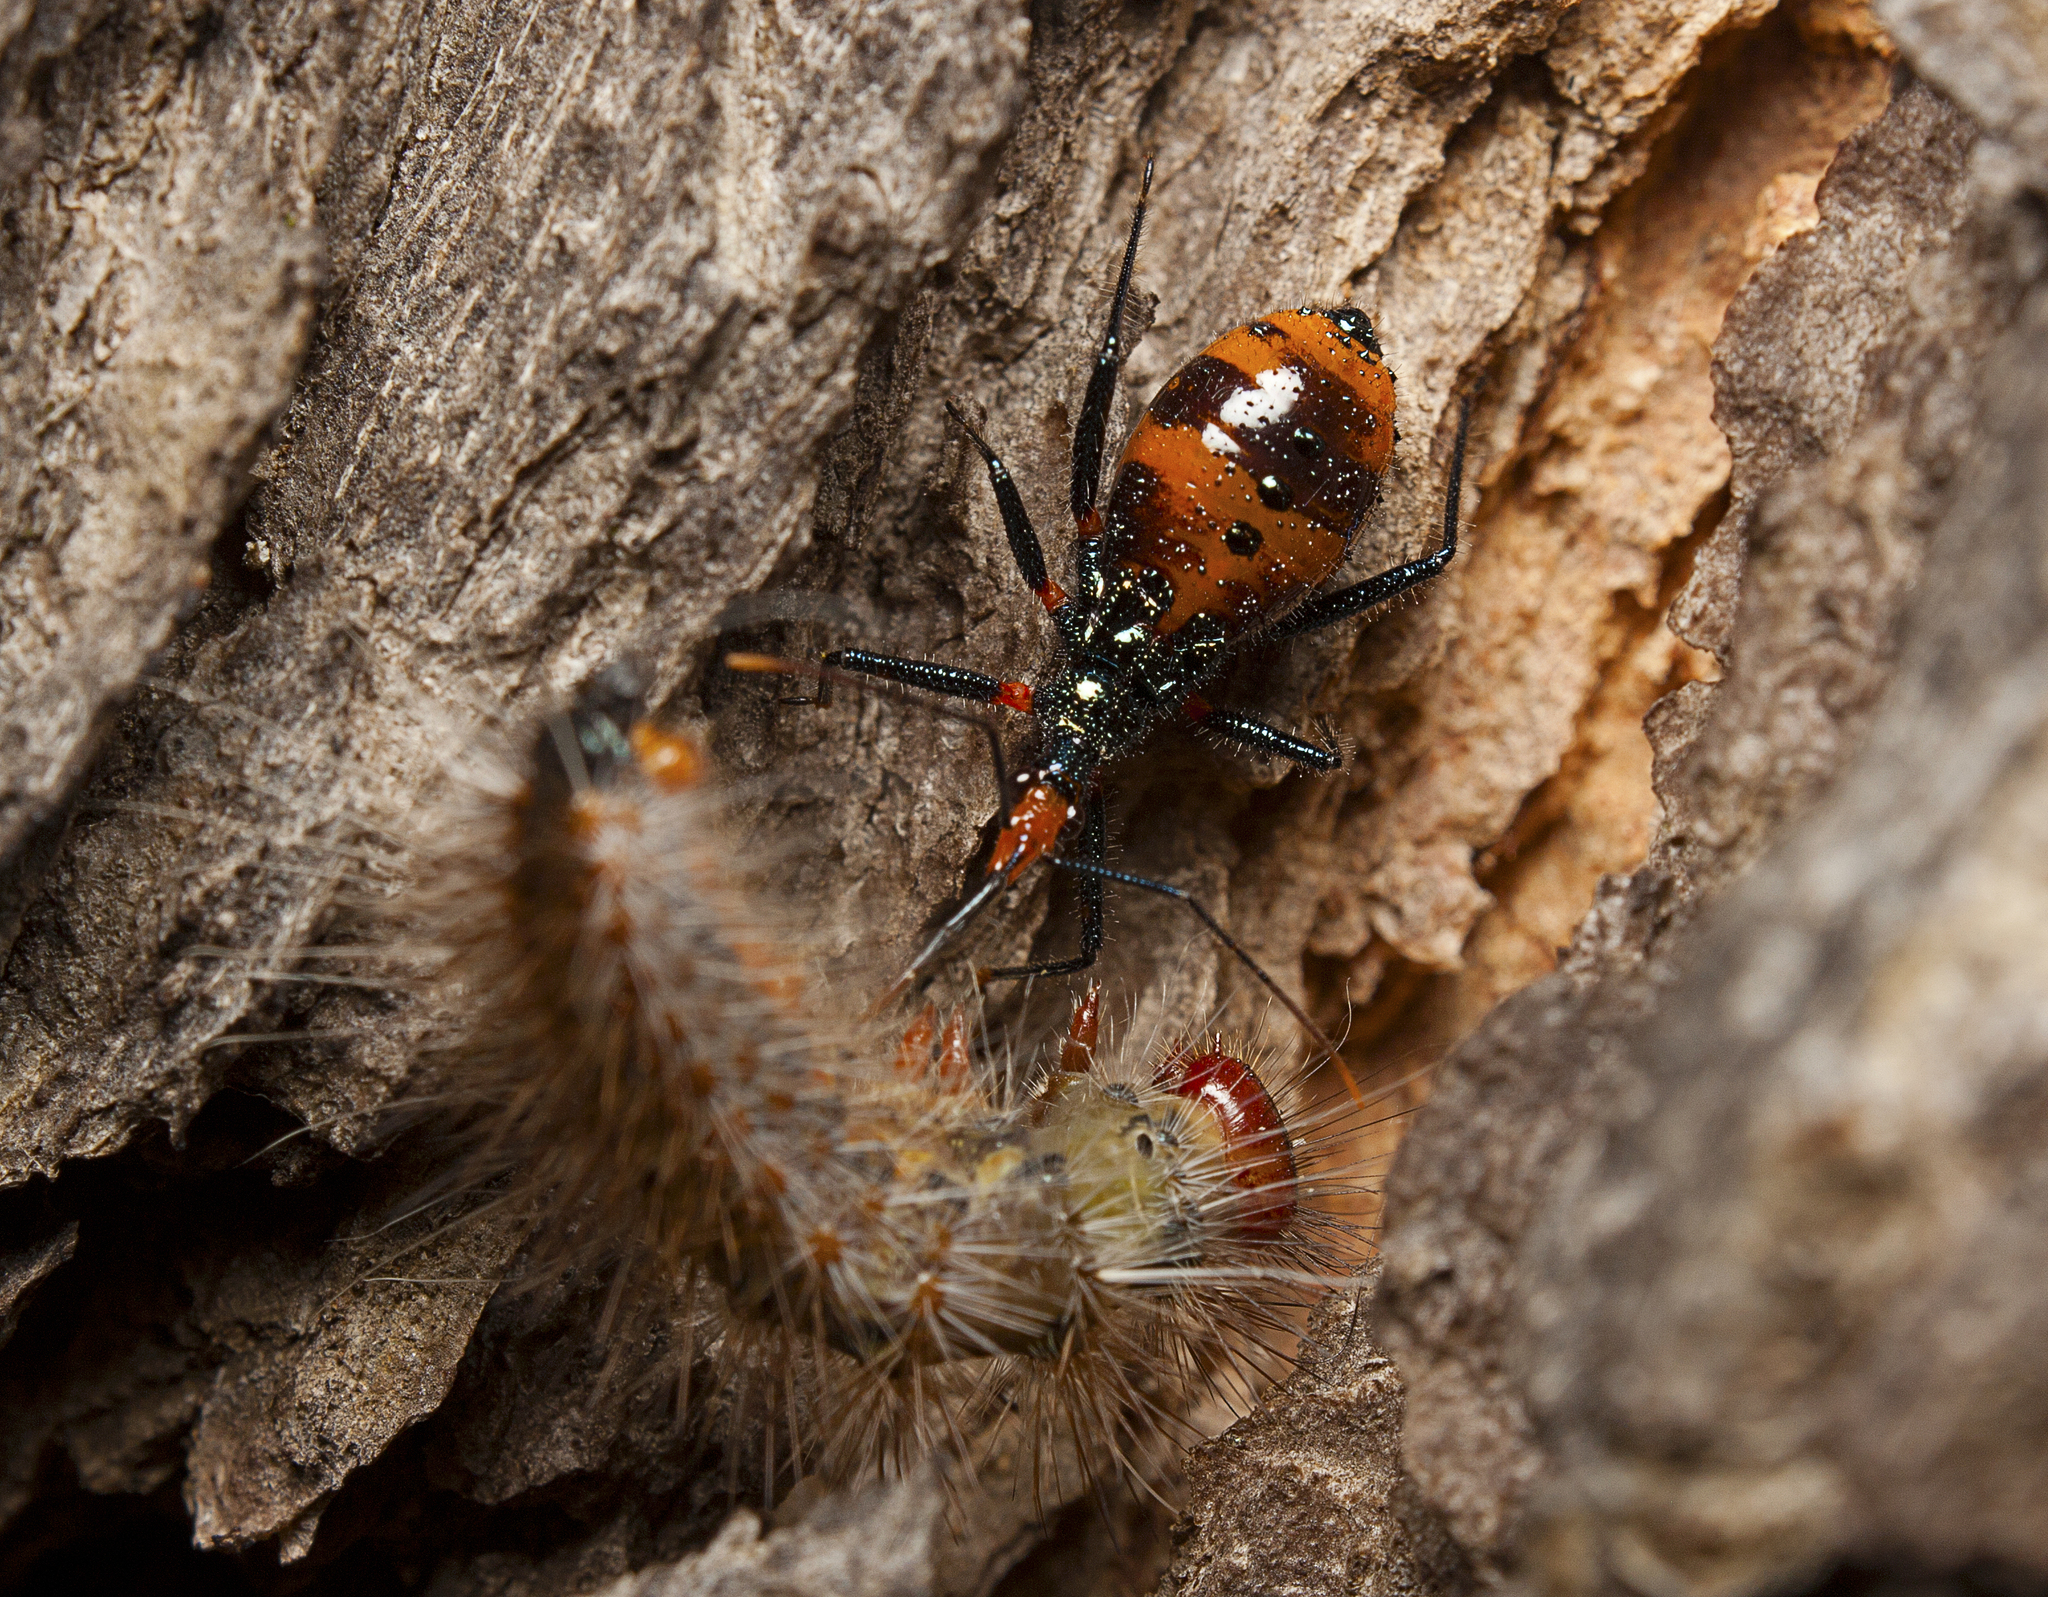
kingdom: Animalia
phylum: Arthropoda
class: Insecta
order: Hemiptera
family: Reduviidae
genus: Havinthus
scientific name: Havinthus rufovarius
